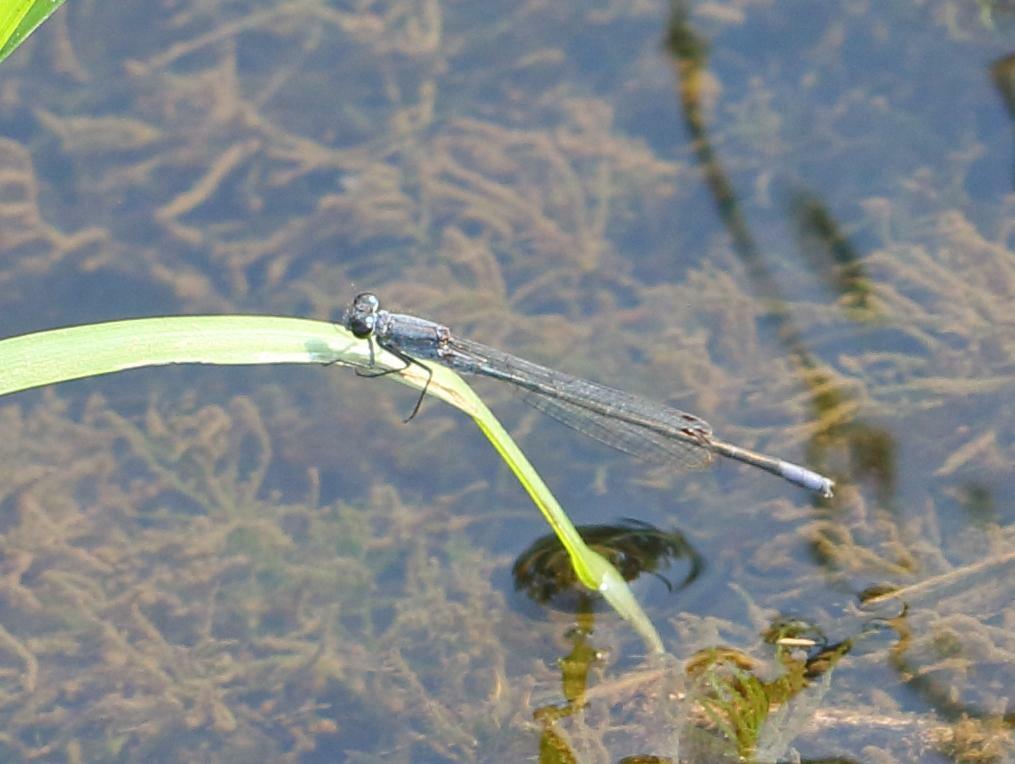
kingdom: Animalia
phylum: Arthropoda
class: Insecta
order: Odonata
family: Coenagrionidae
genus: Pseudagrion
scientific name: Pseudagrion salisburyense
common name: Slate sprite
